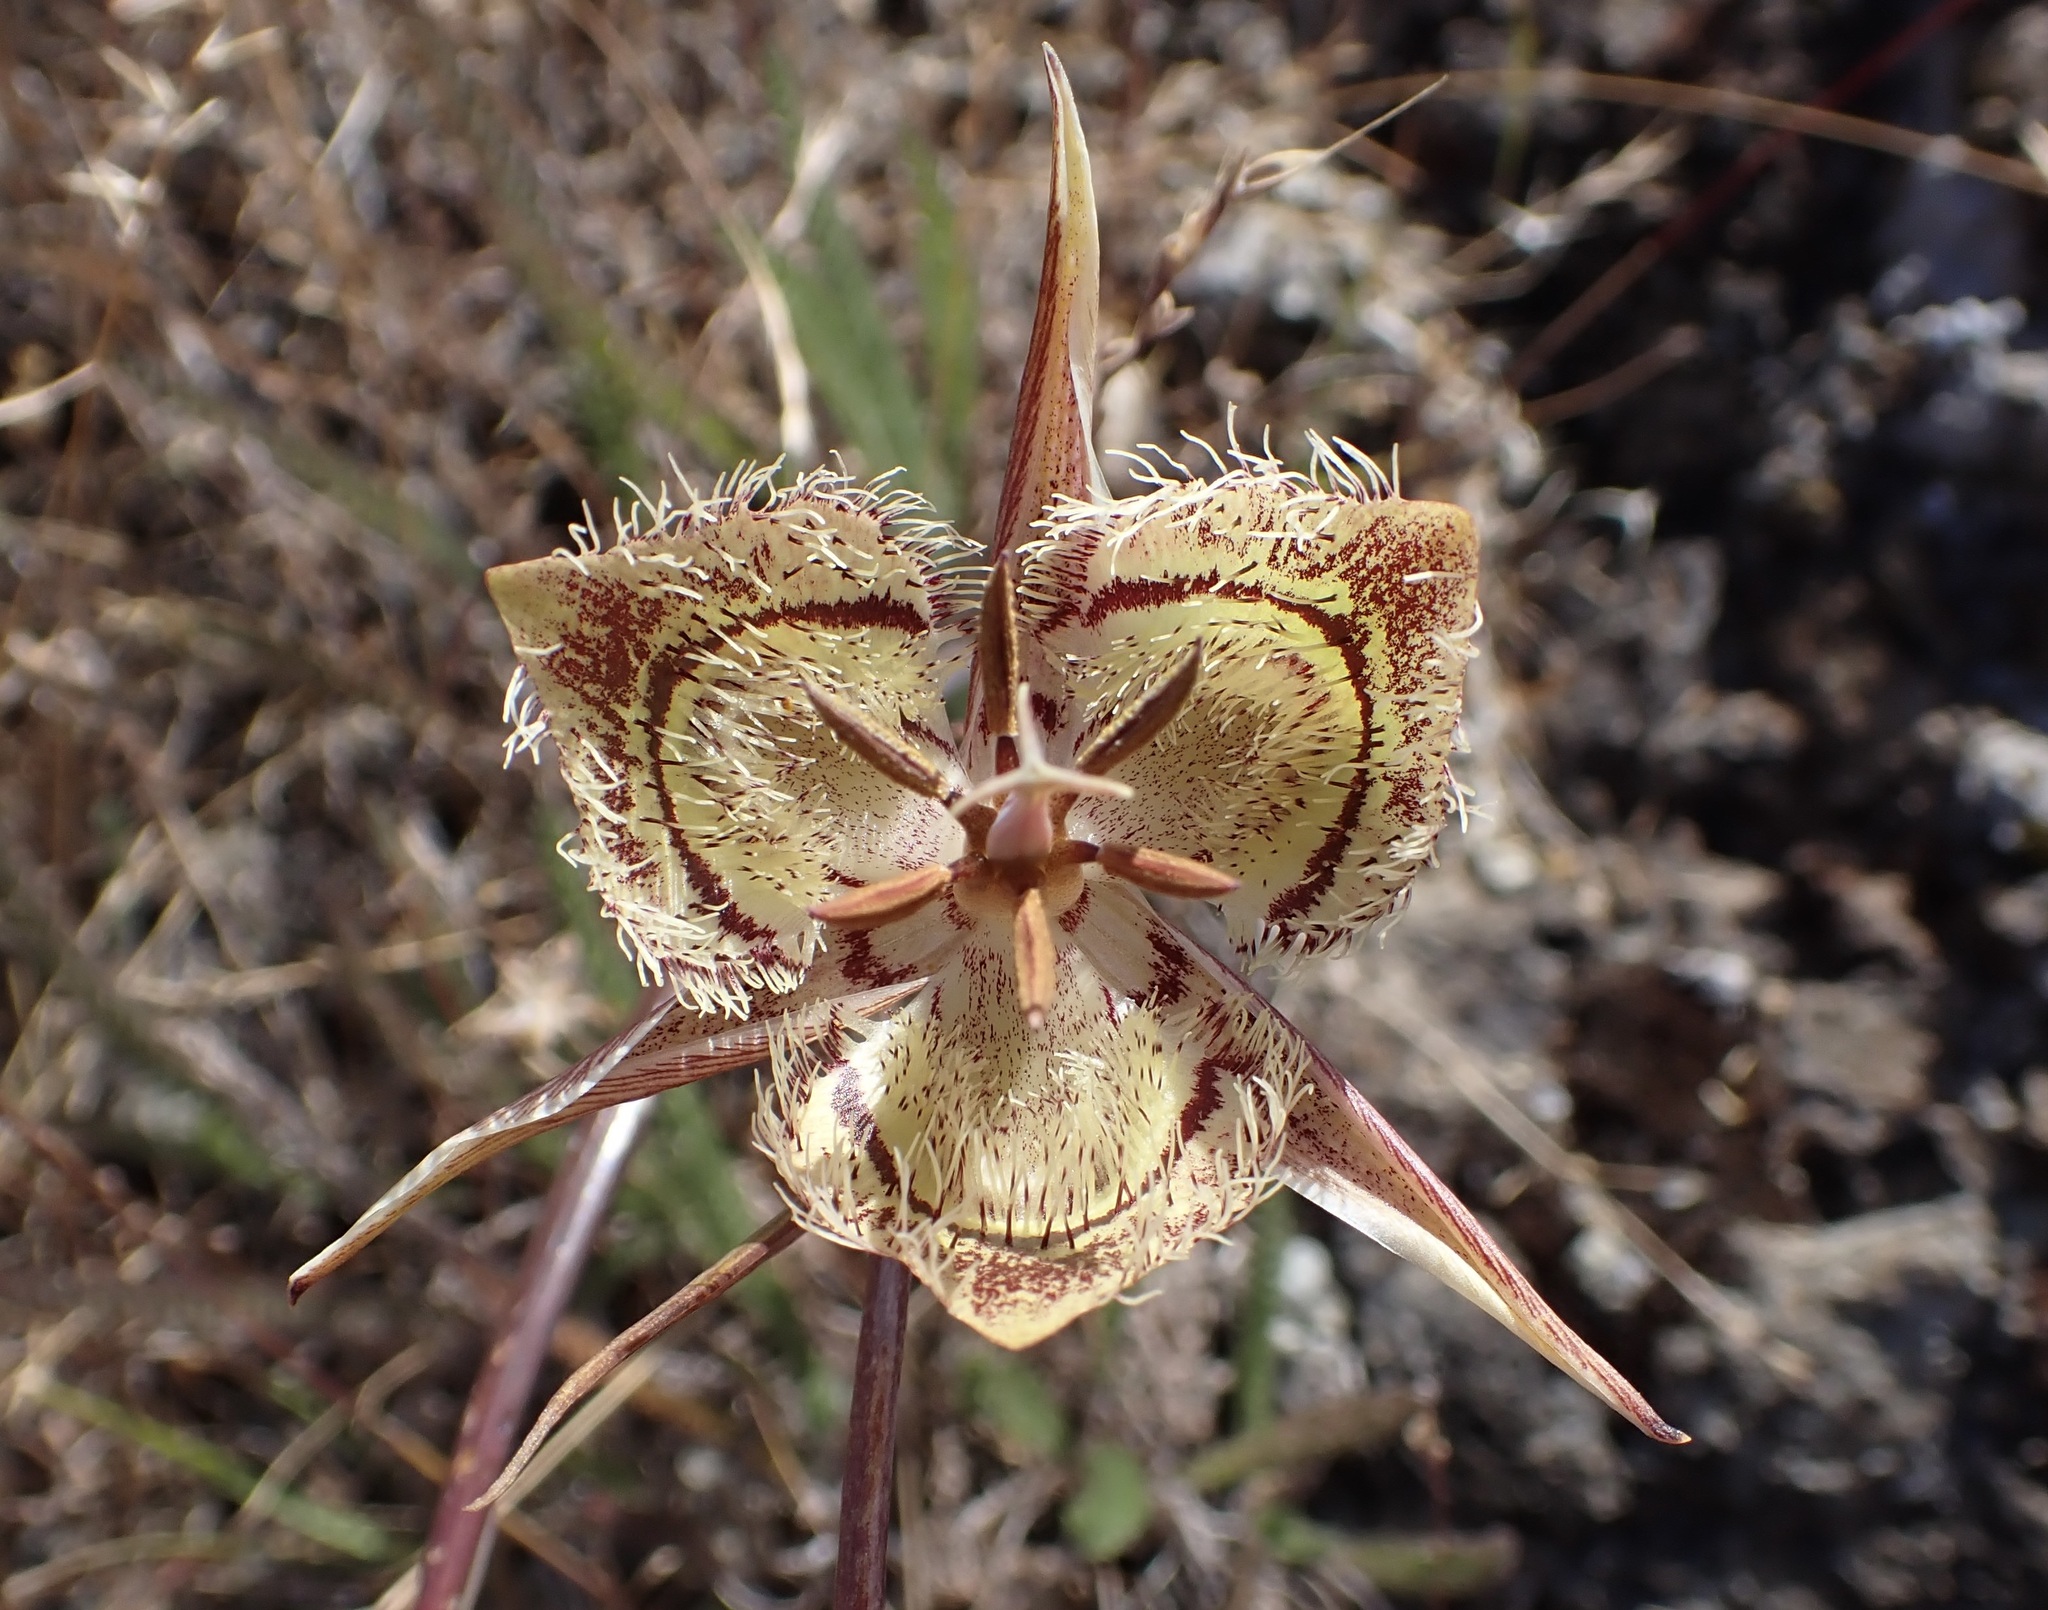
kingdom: Plantae
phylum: Tracheophyta
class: Liliopsida
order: Liliales
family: Liliaceae
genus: Calochortus
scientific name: Calochortus tiburonensis
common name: Tiburon mariposa-lily
